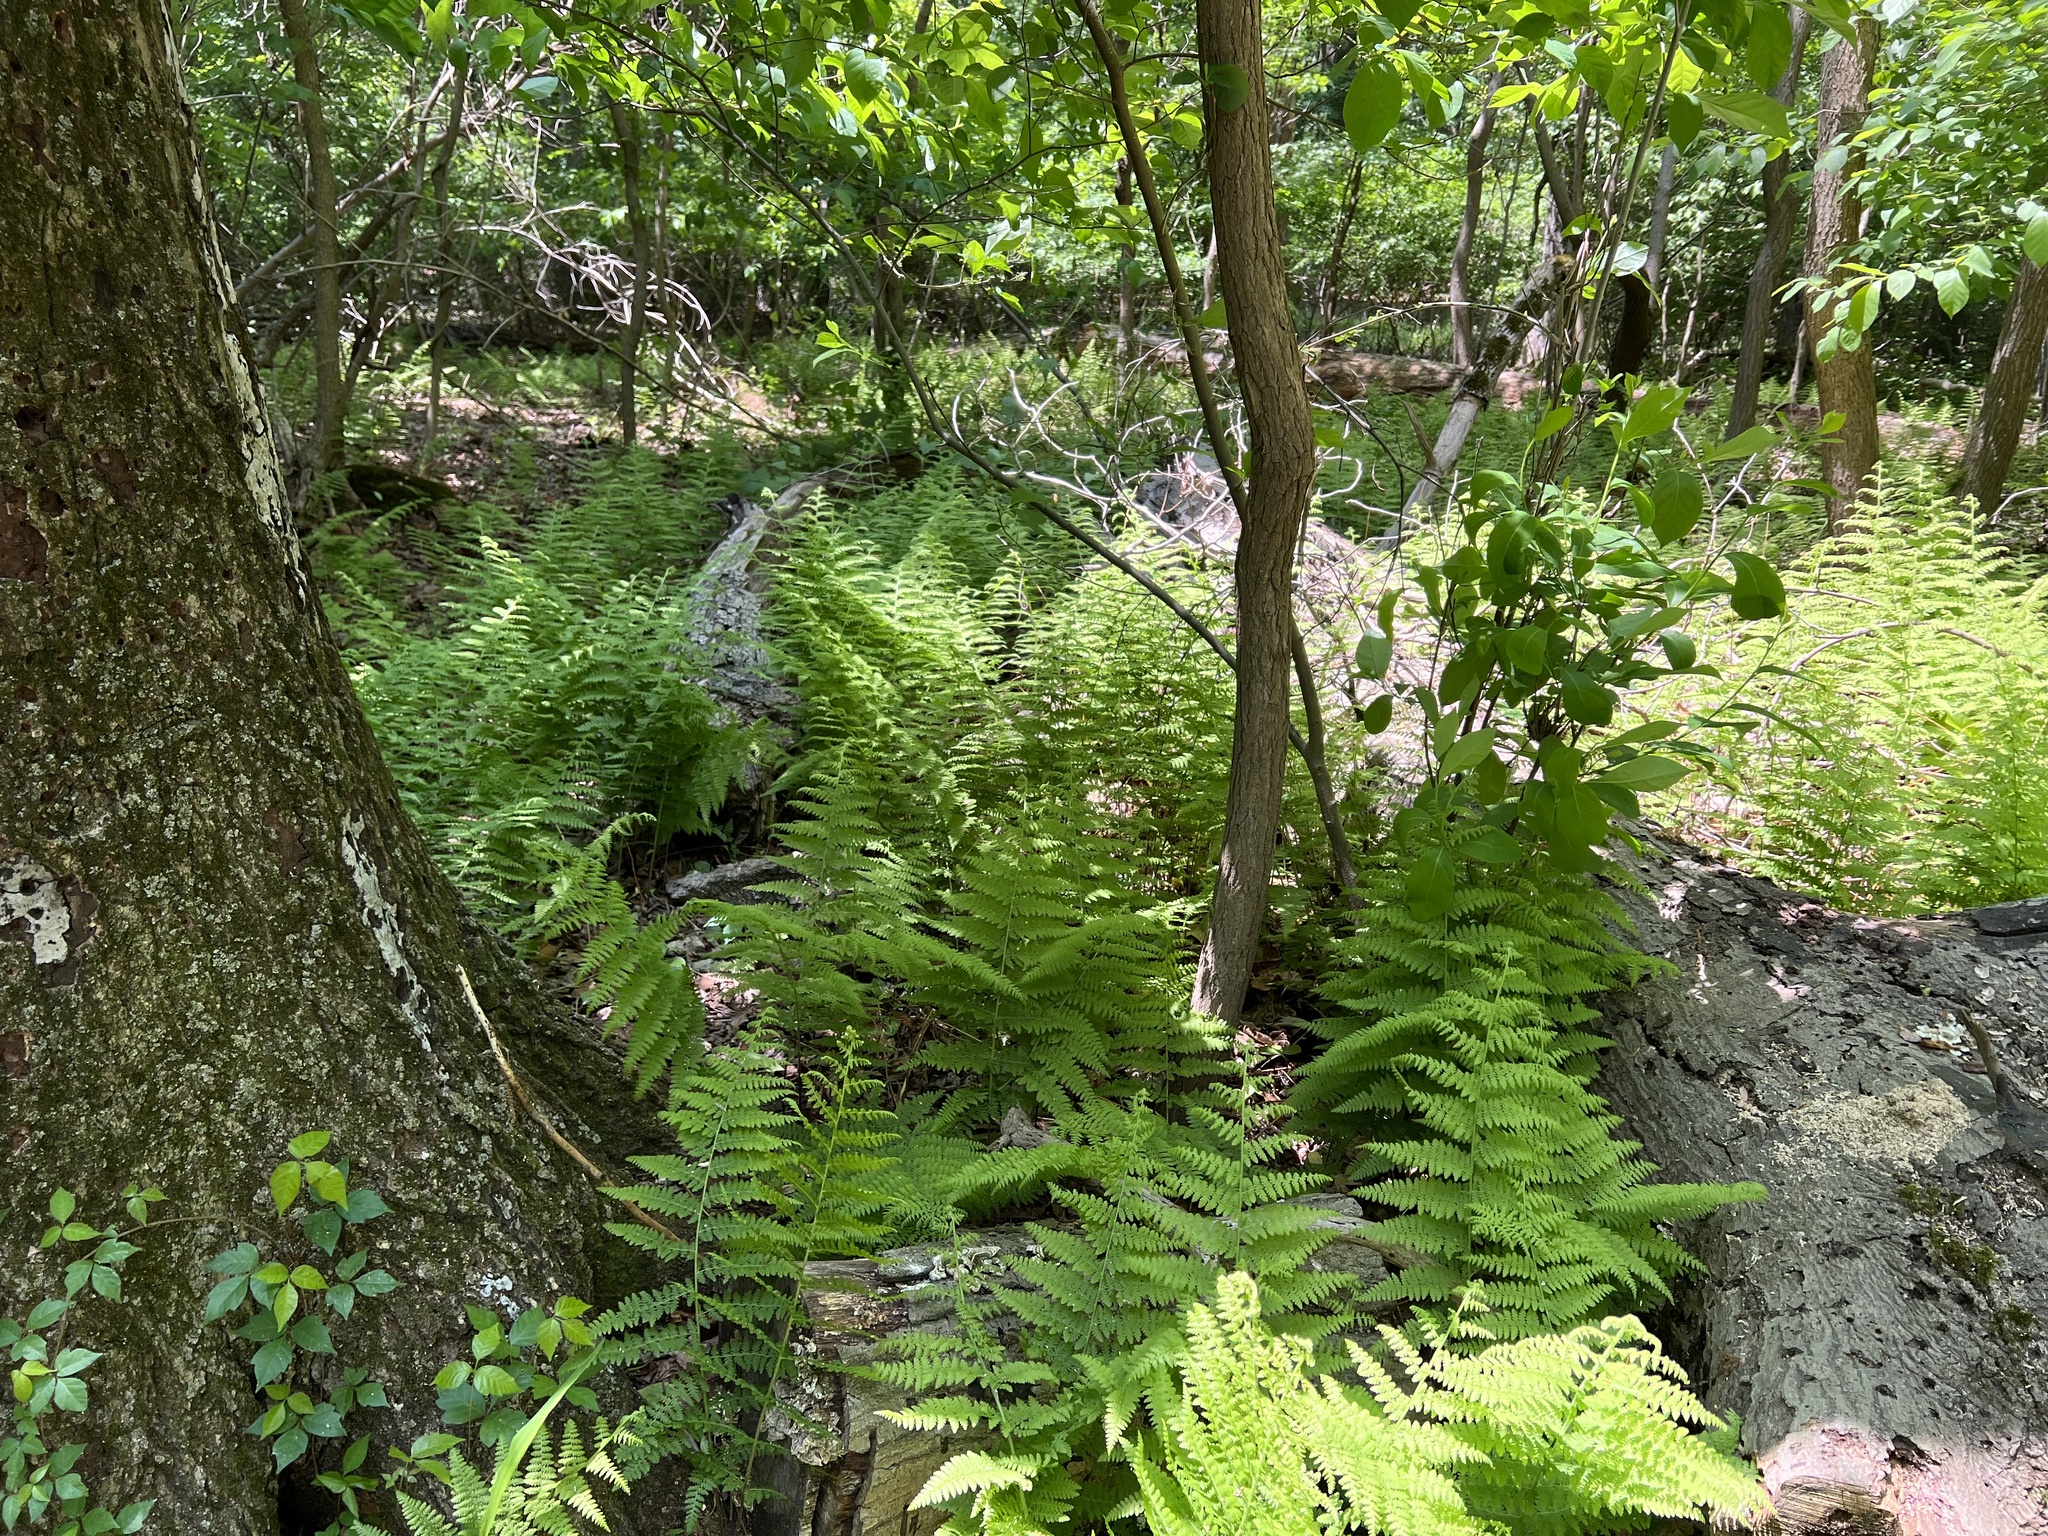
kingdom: Plantae
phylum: Tracheophyta
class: Polypodiopsida
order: Polypodiales
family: Dennstaedtiaceae
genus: Sitobolium
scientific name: Sitobolium punctilobum
